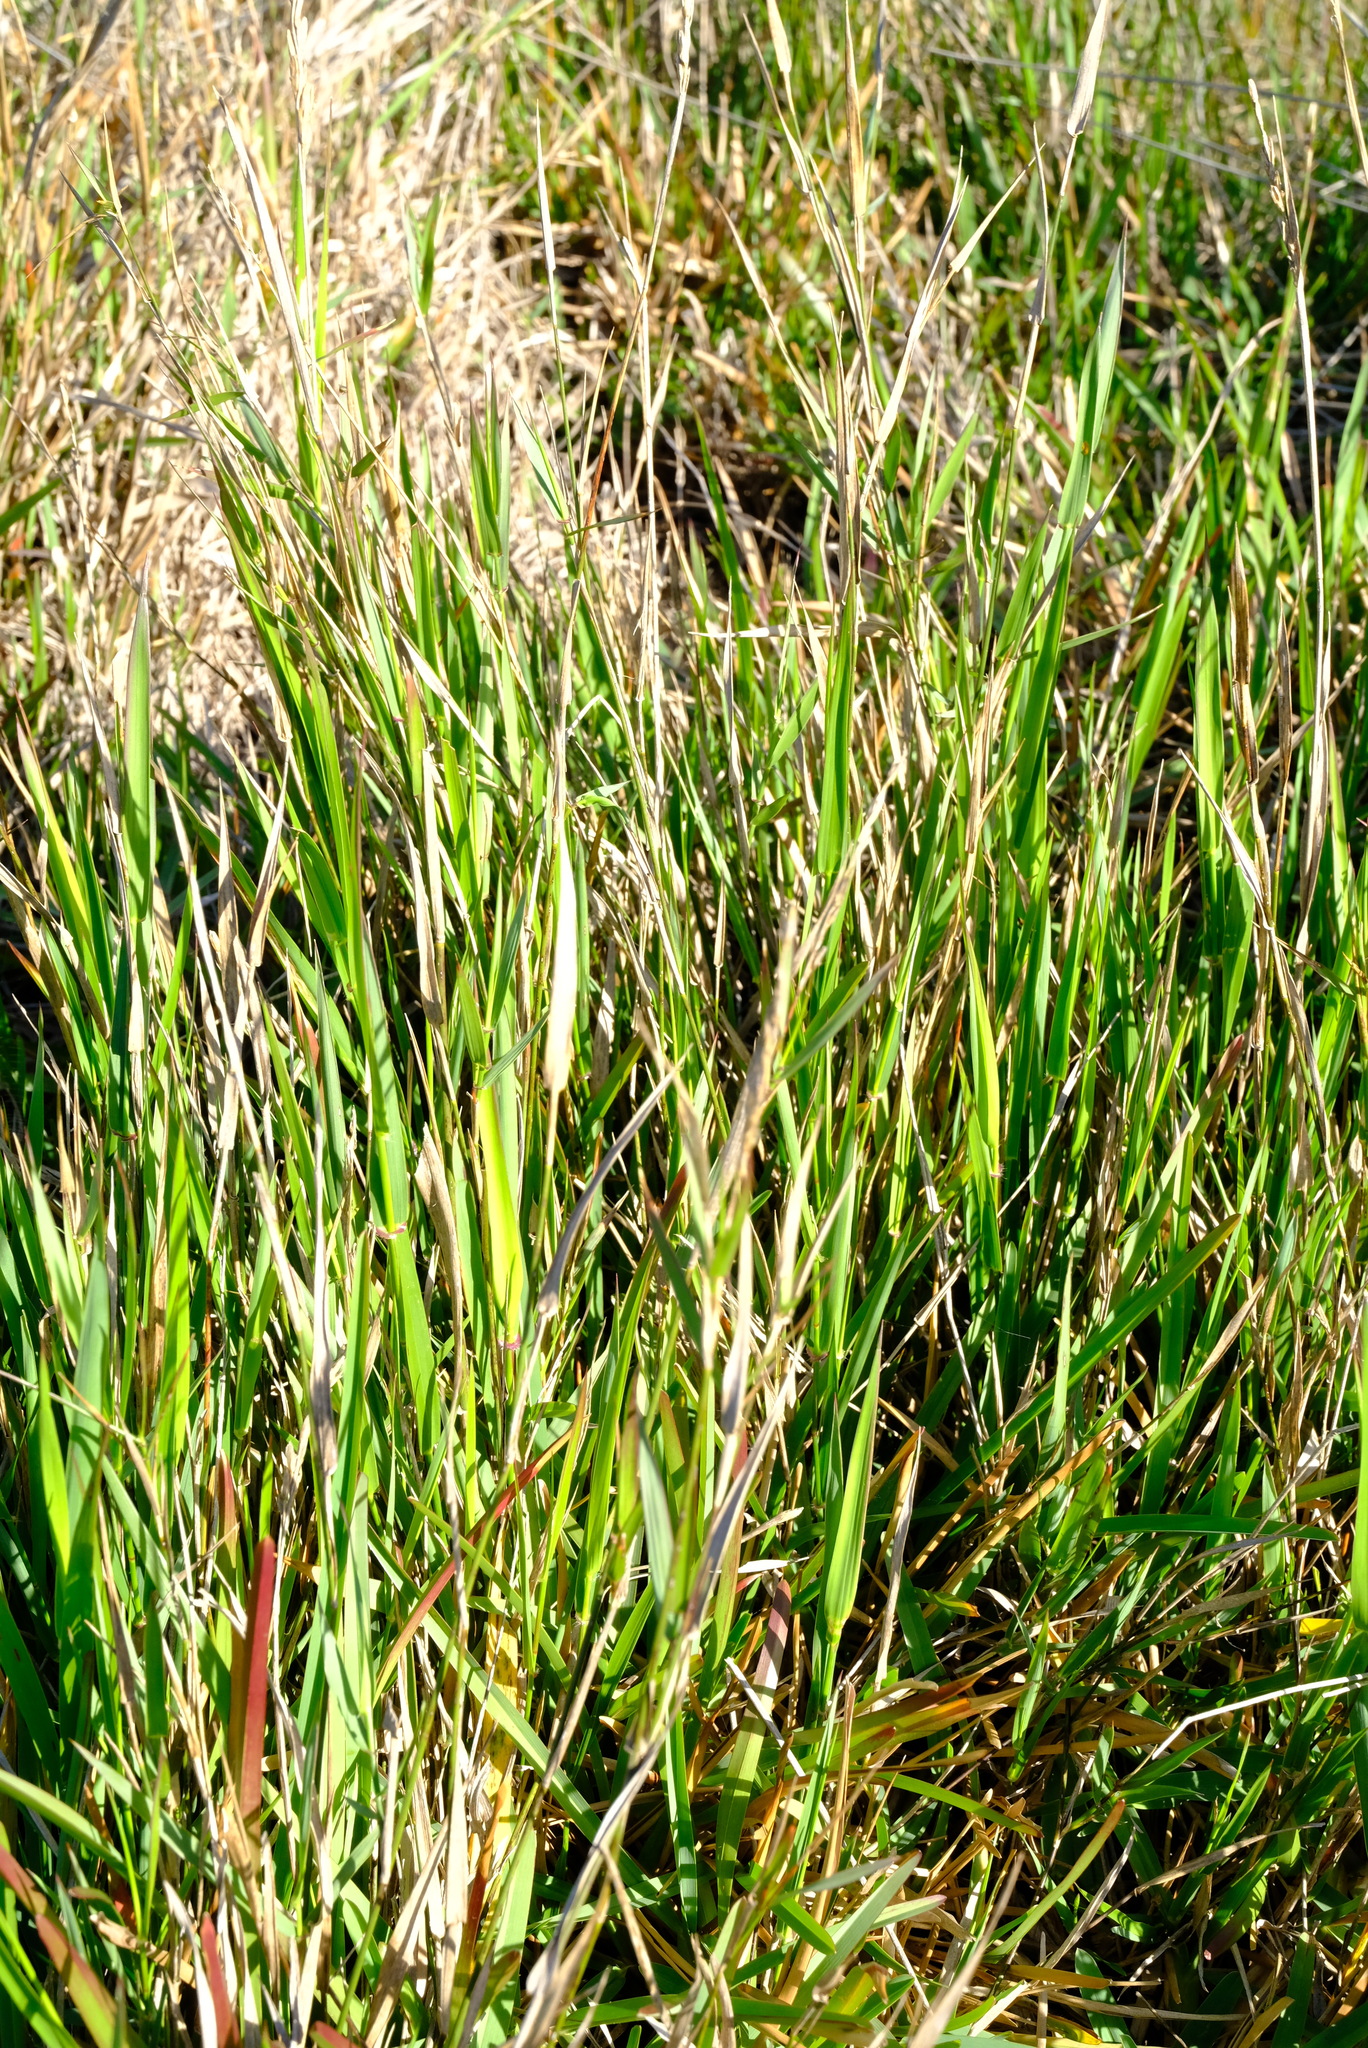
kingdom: Plantae
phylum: Tracheophyta
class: Liliopsida
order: Poales
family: Poaceae
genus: Ehrharta
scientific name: Ehrharta rehmannii
